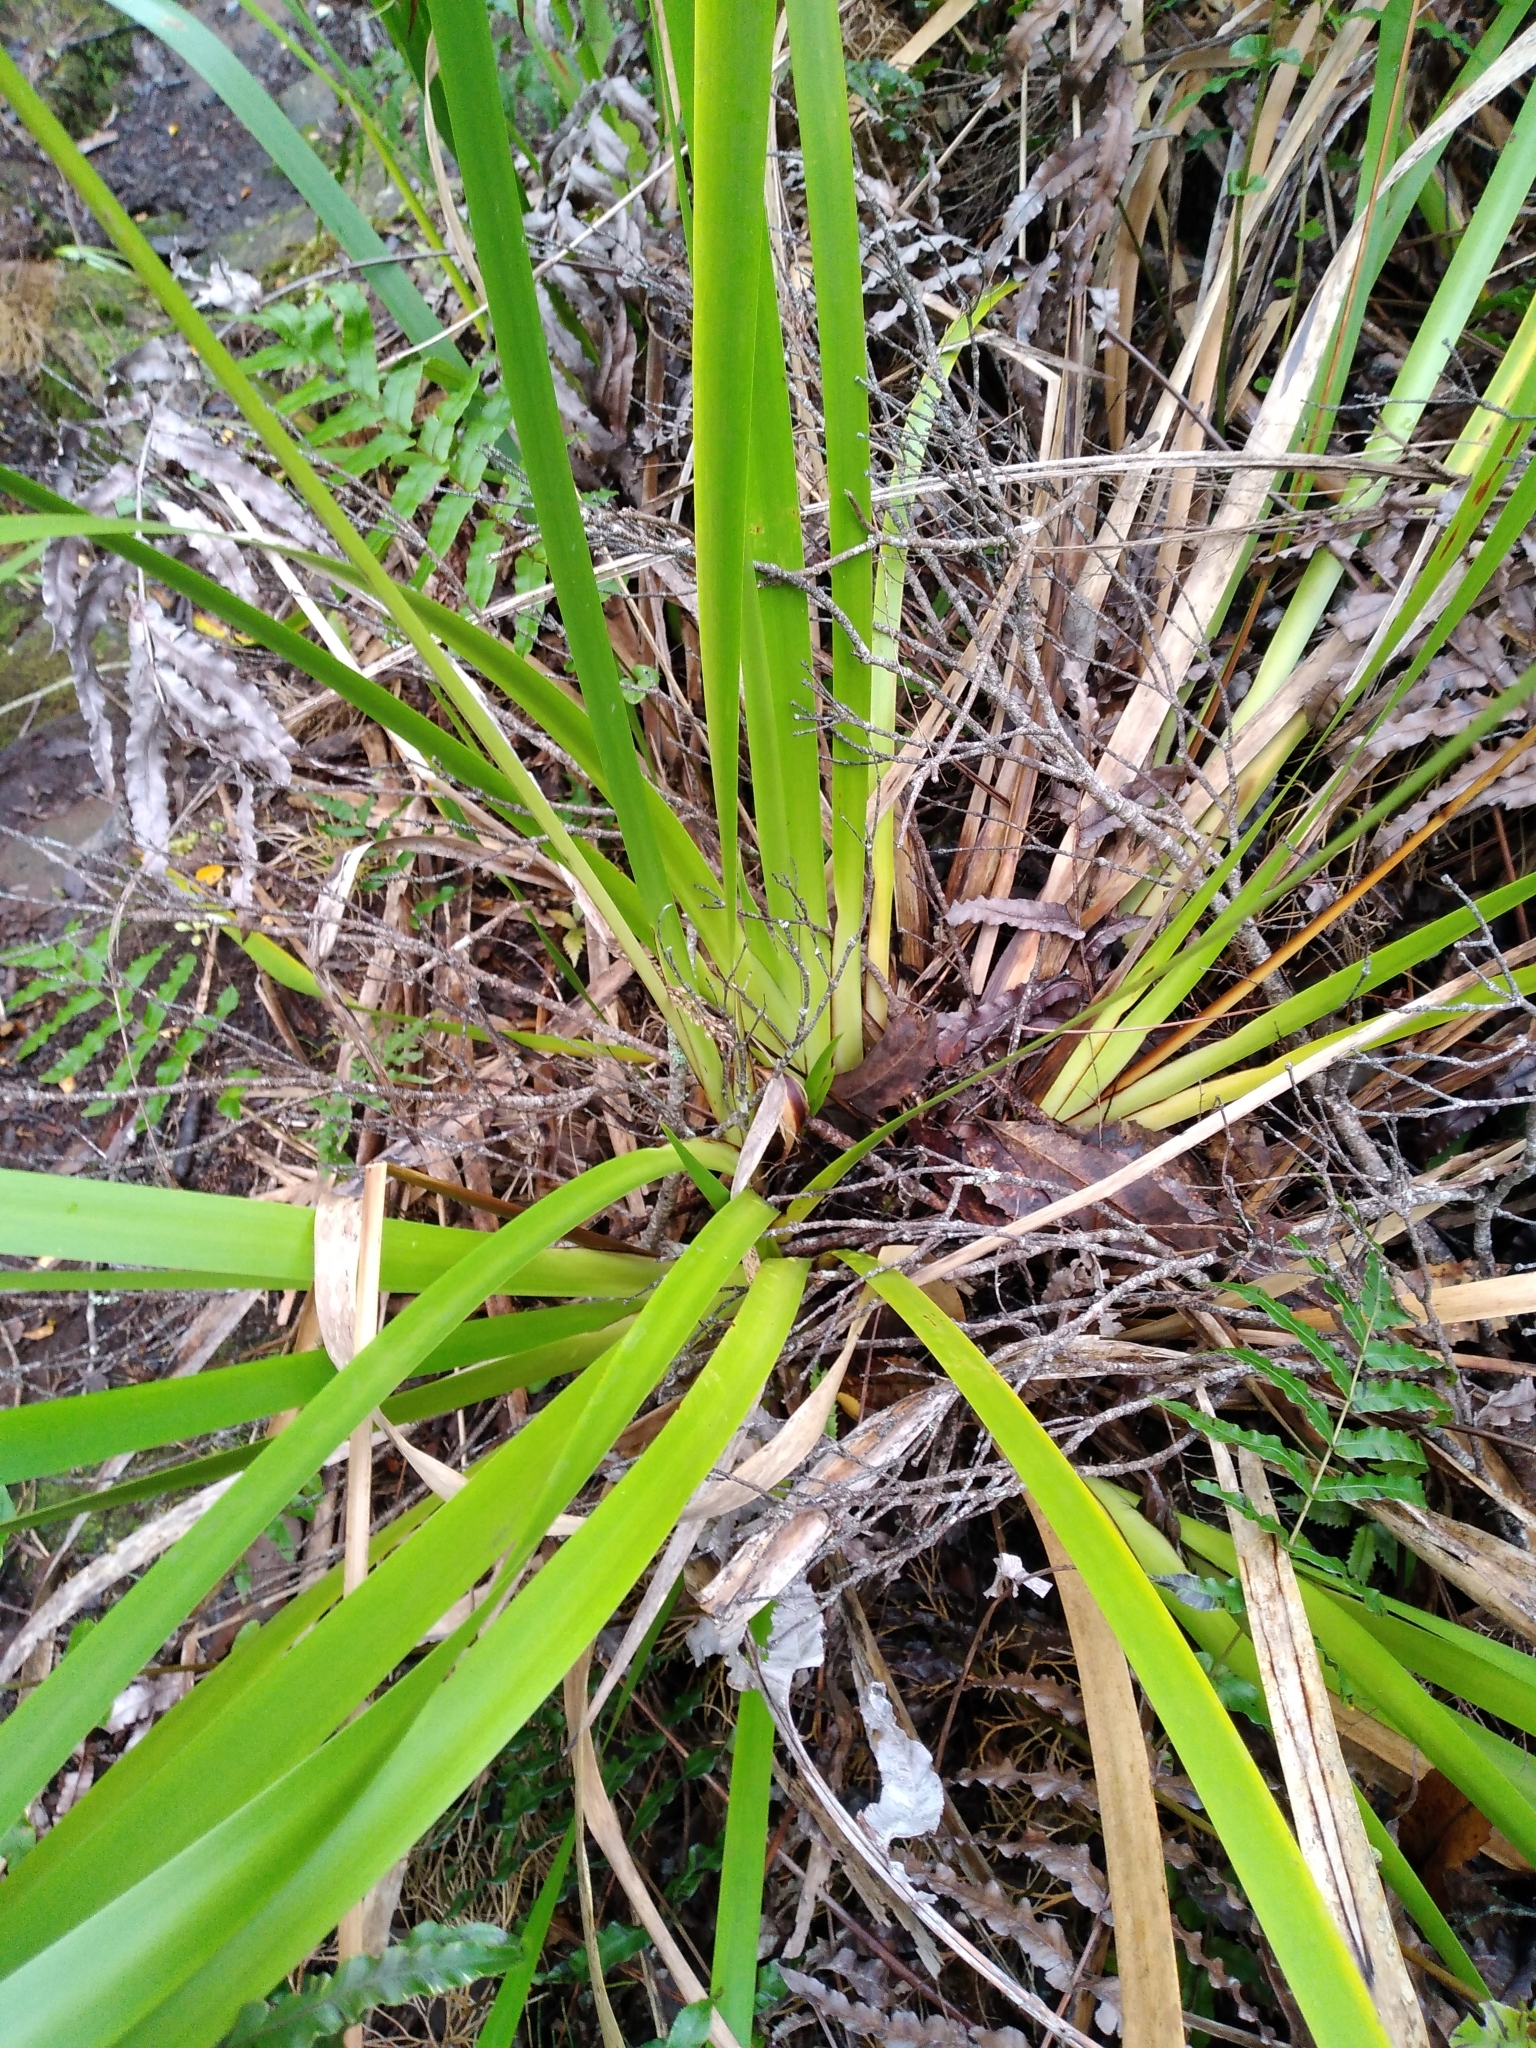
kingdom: Plantae
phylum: Tracheophyta
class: Liliopsida
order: Poales
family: Cyperaceae
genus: Machaerina
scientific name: Machaerina sinclairii
